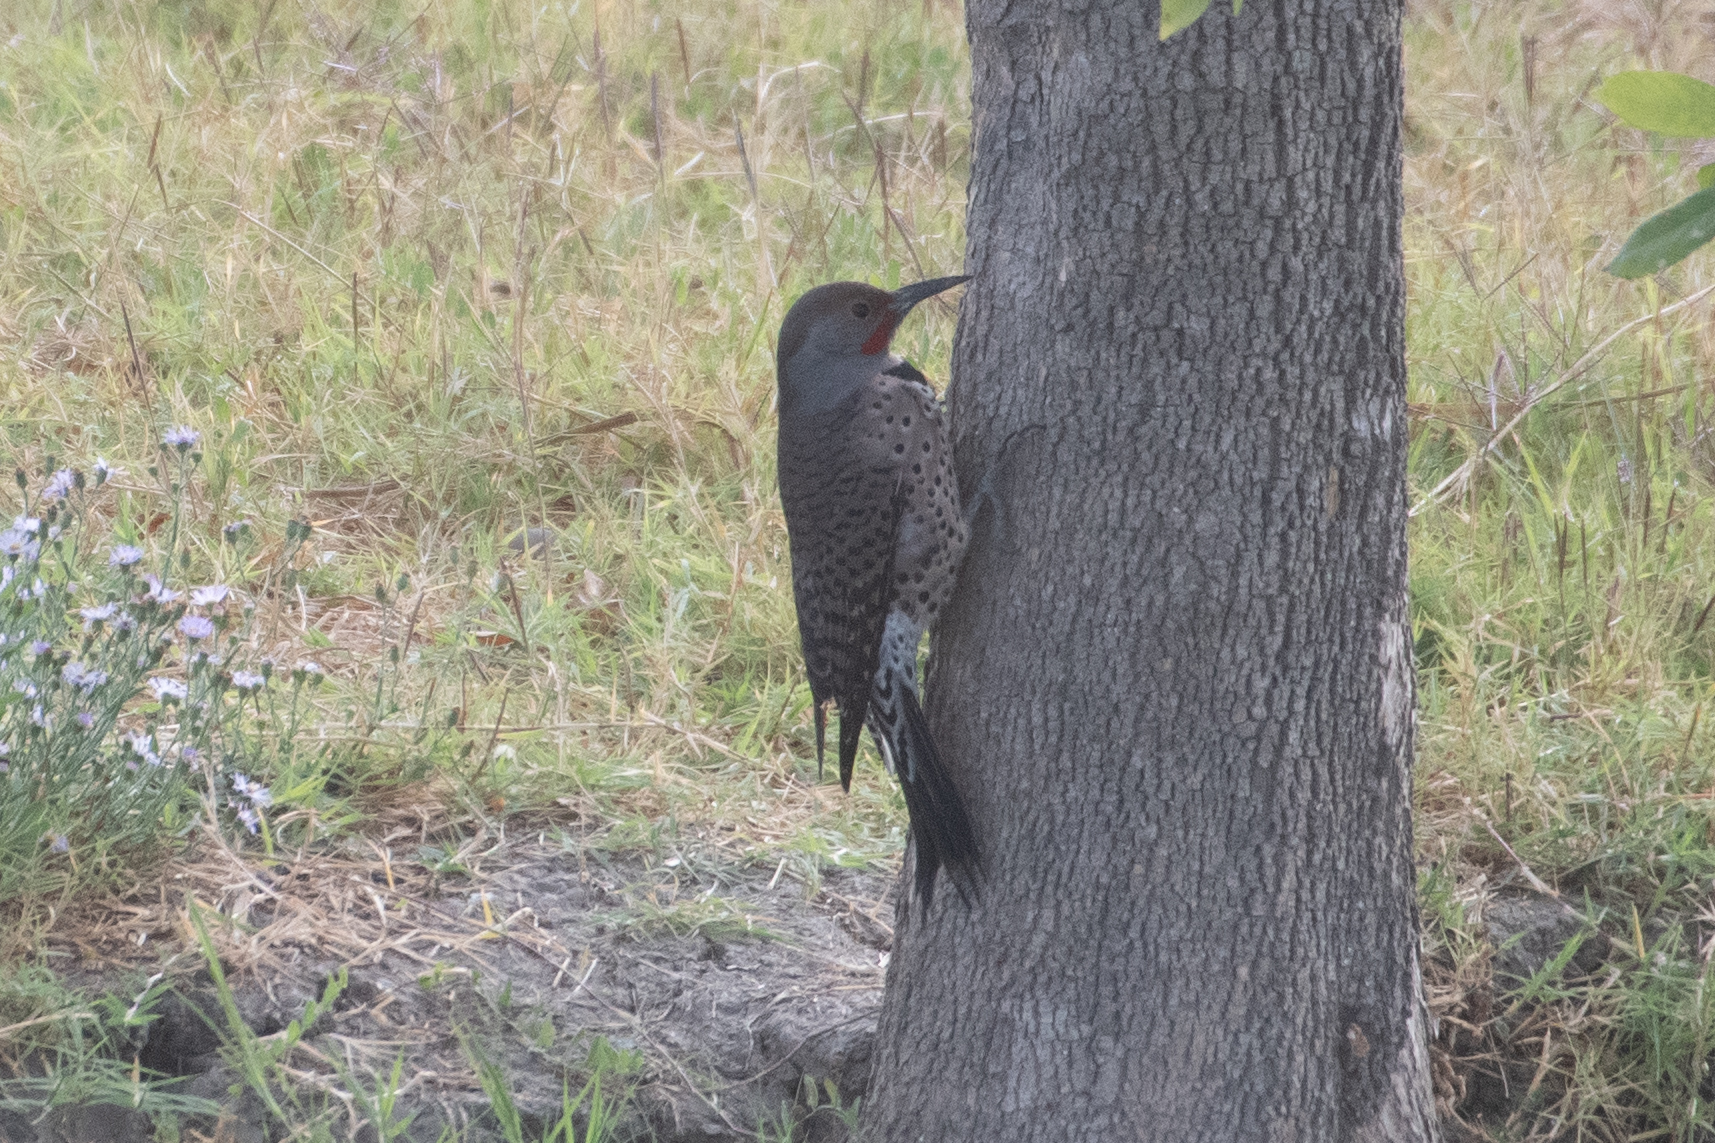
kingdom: Animalia
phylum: Chordata
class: Aves
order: Piciformes
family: Picidae
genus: Colaptes
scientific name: Colaptes auratus
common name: Northern flicker
